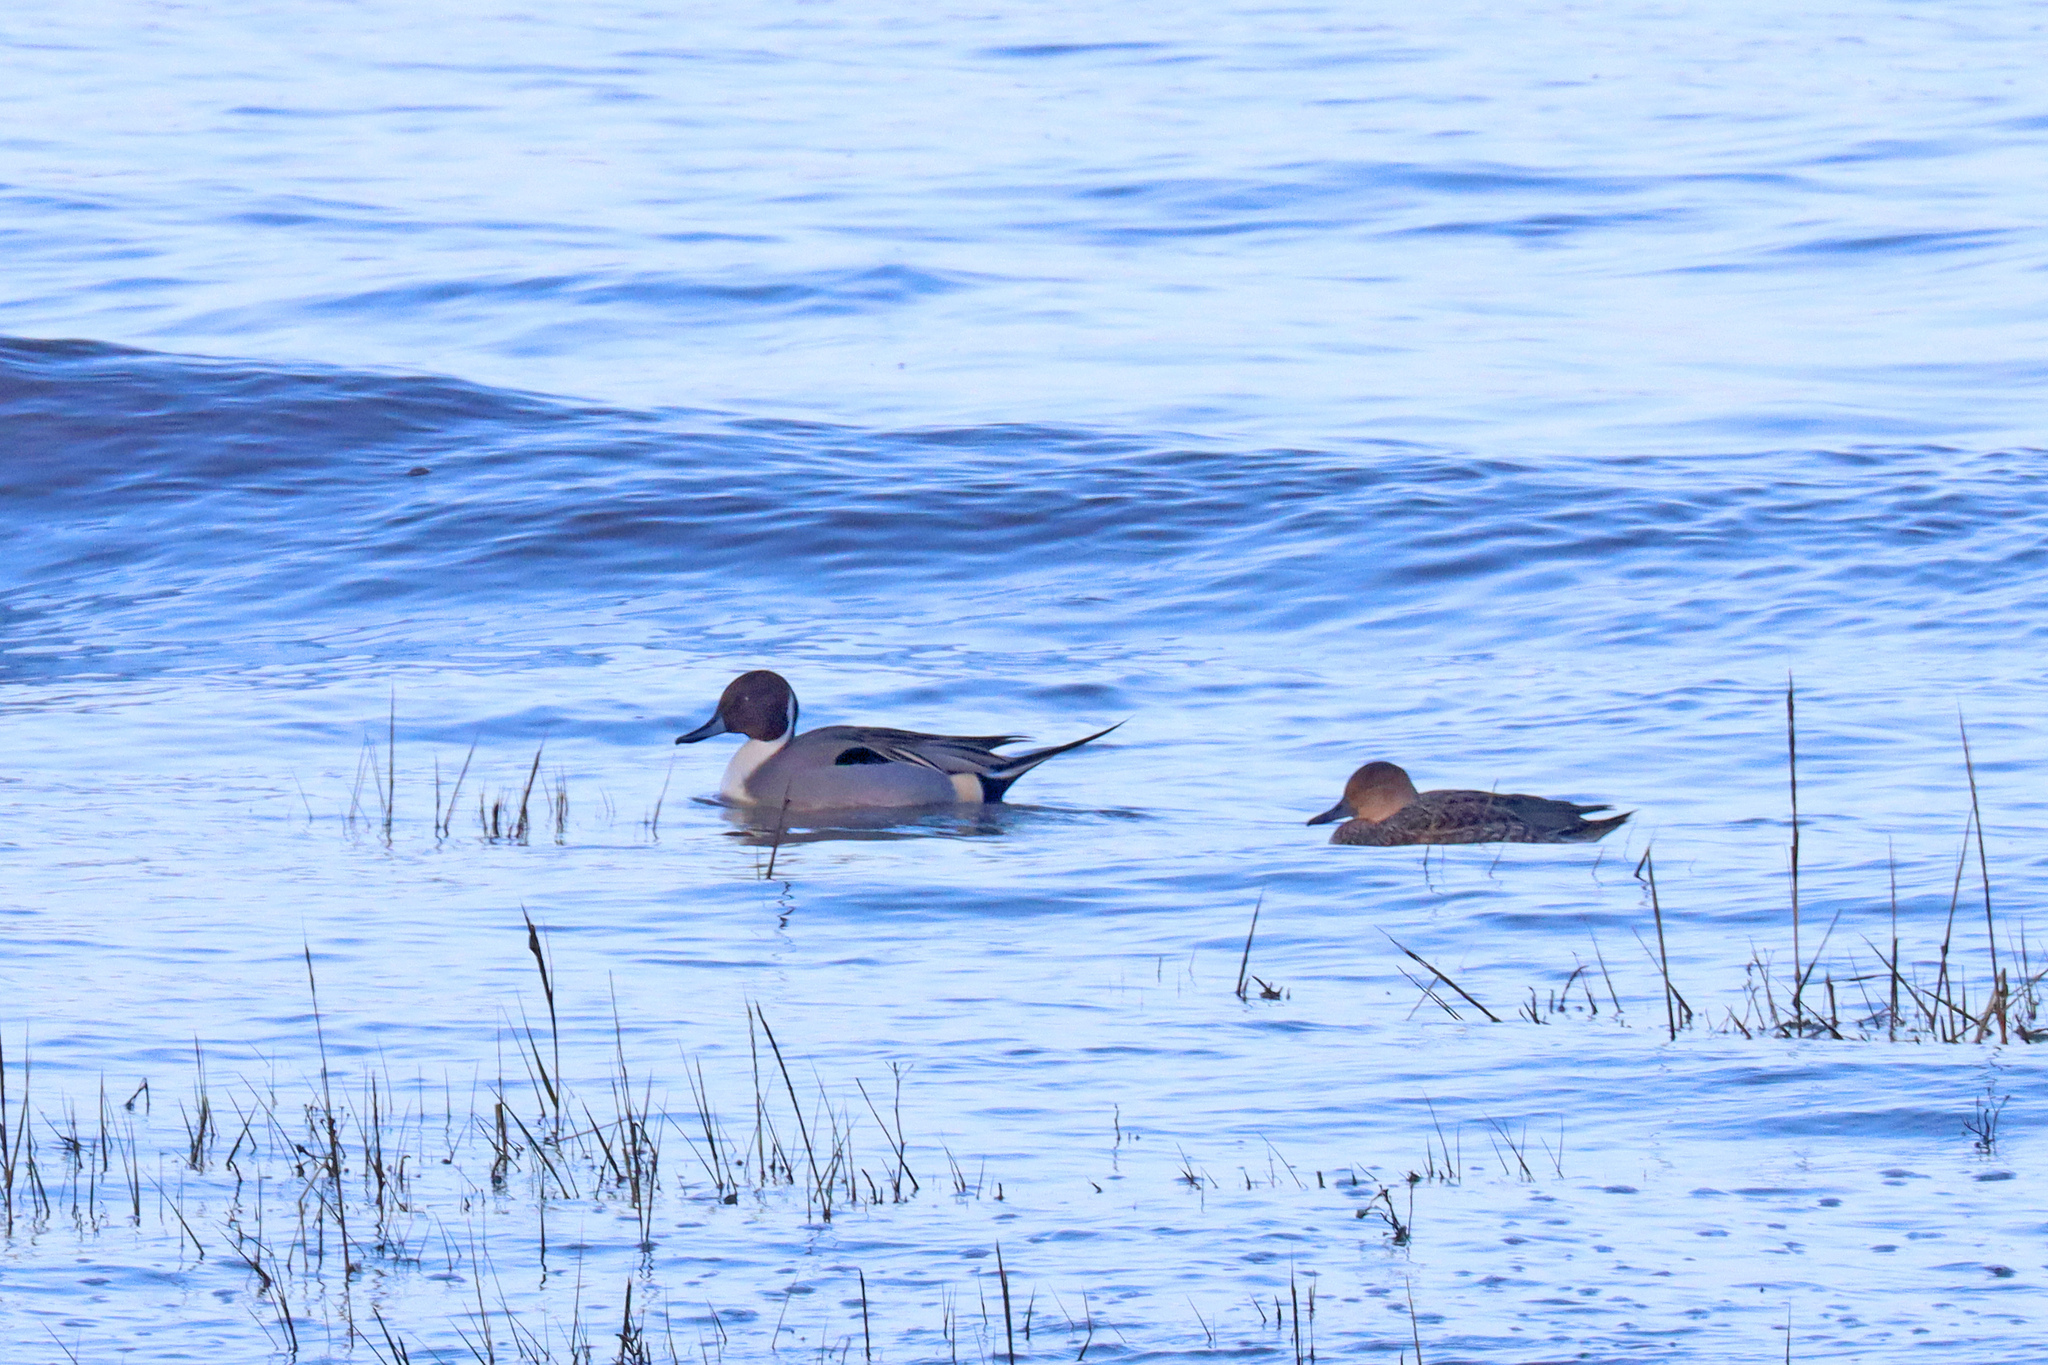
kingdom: Animalia
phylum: Chordata
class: Aves
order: Anseriformes
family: Anatidae
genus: Anas
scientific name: Anas acuta
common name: Northern pintail
